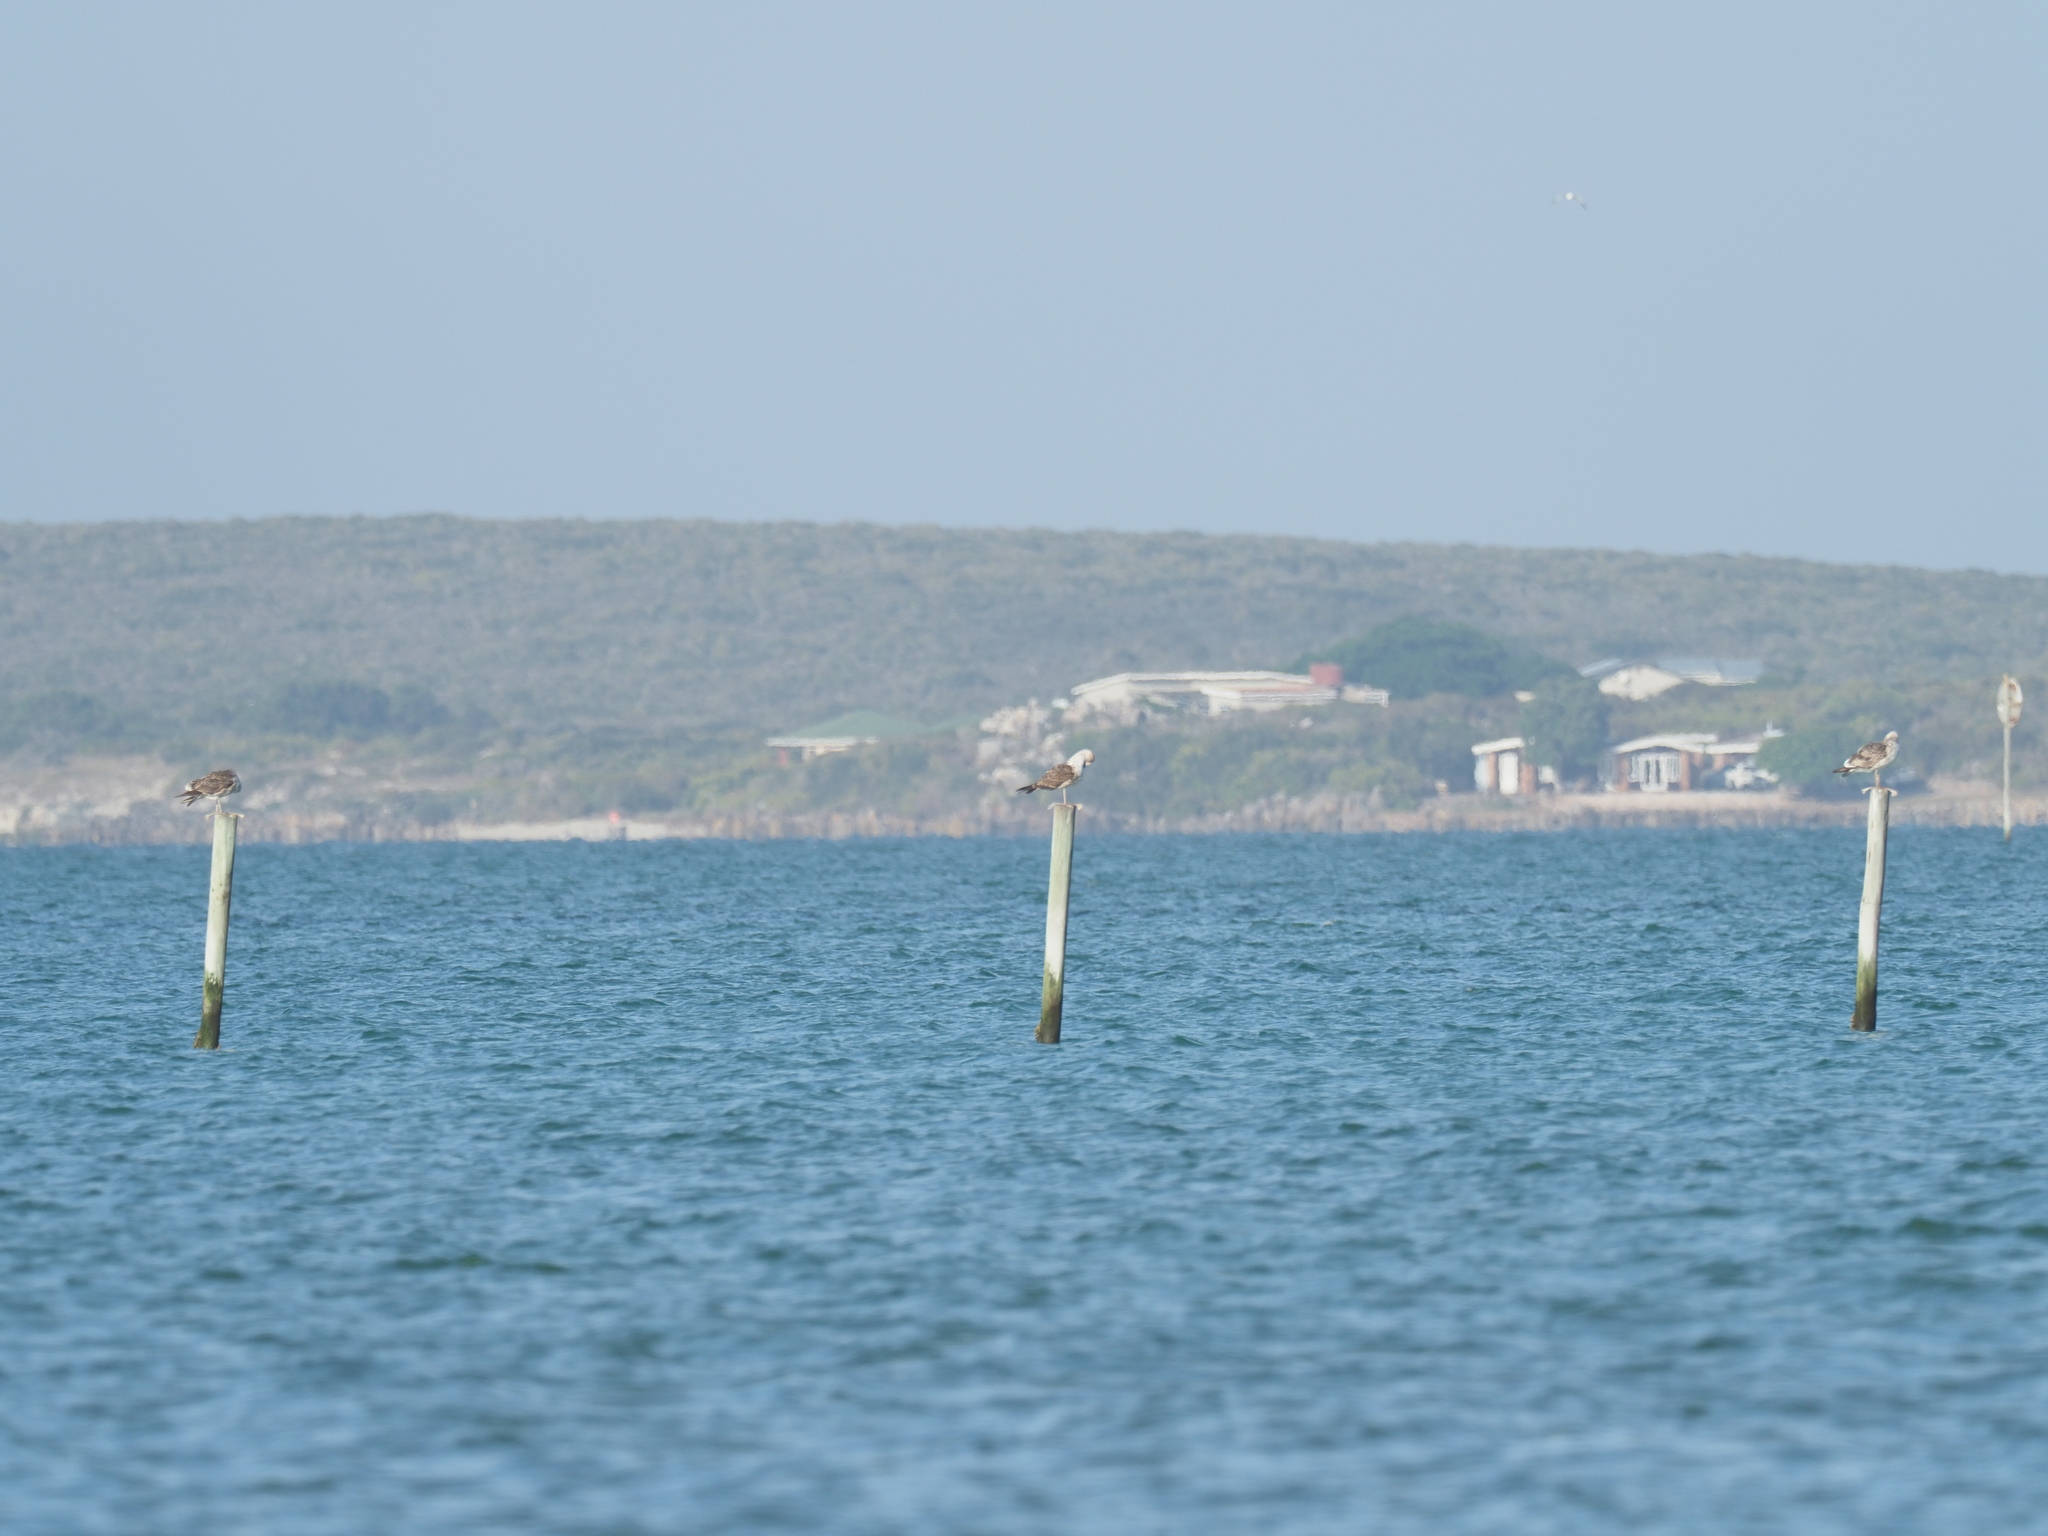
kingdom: Animalia
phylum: Chordata
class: Aves
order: Charadriiformes
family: Laridae
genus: Larus
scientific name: Larus dominicanus
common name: Kelp gull
